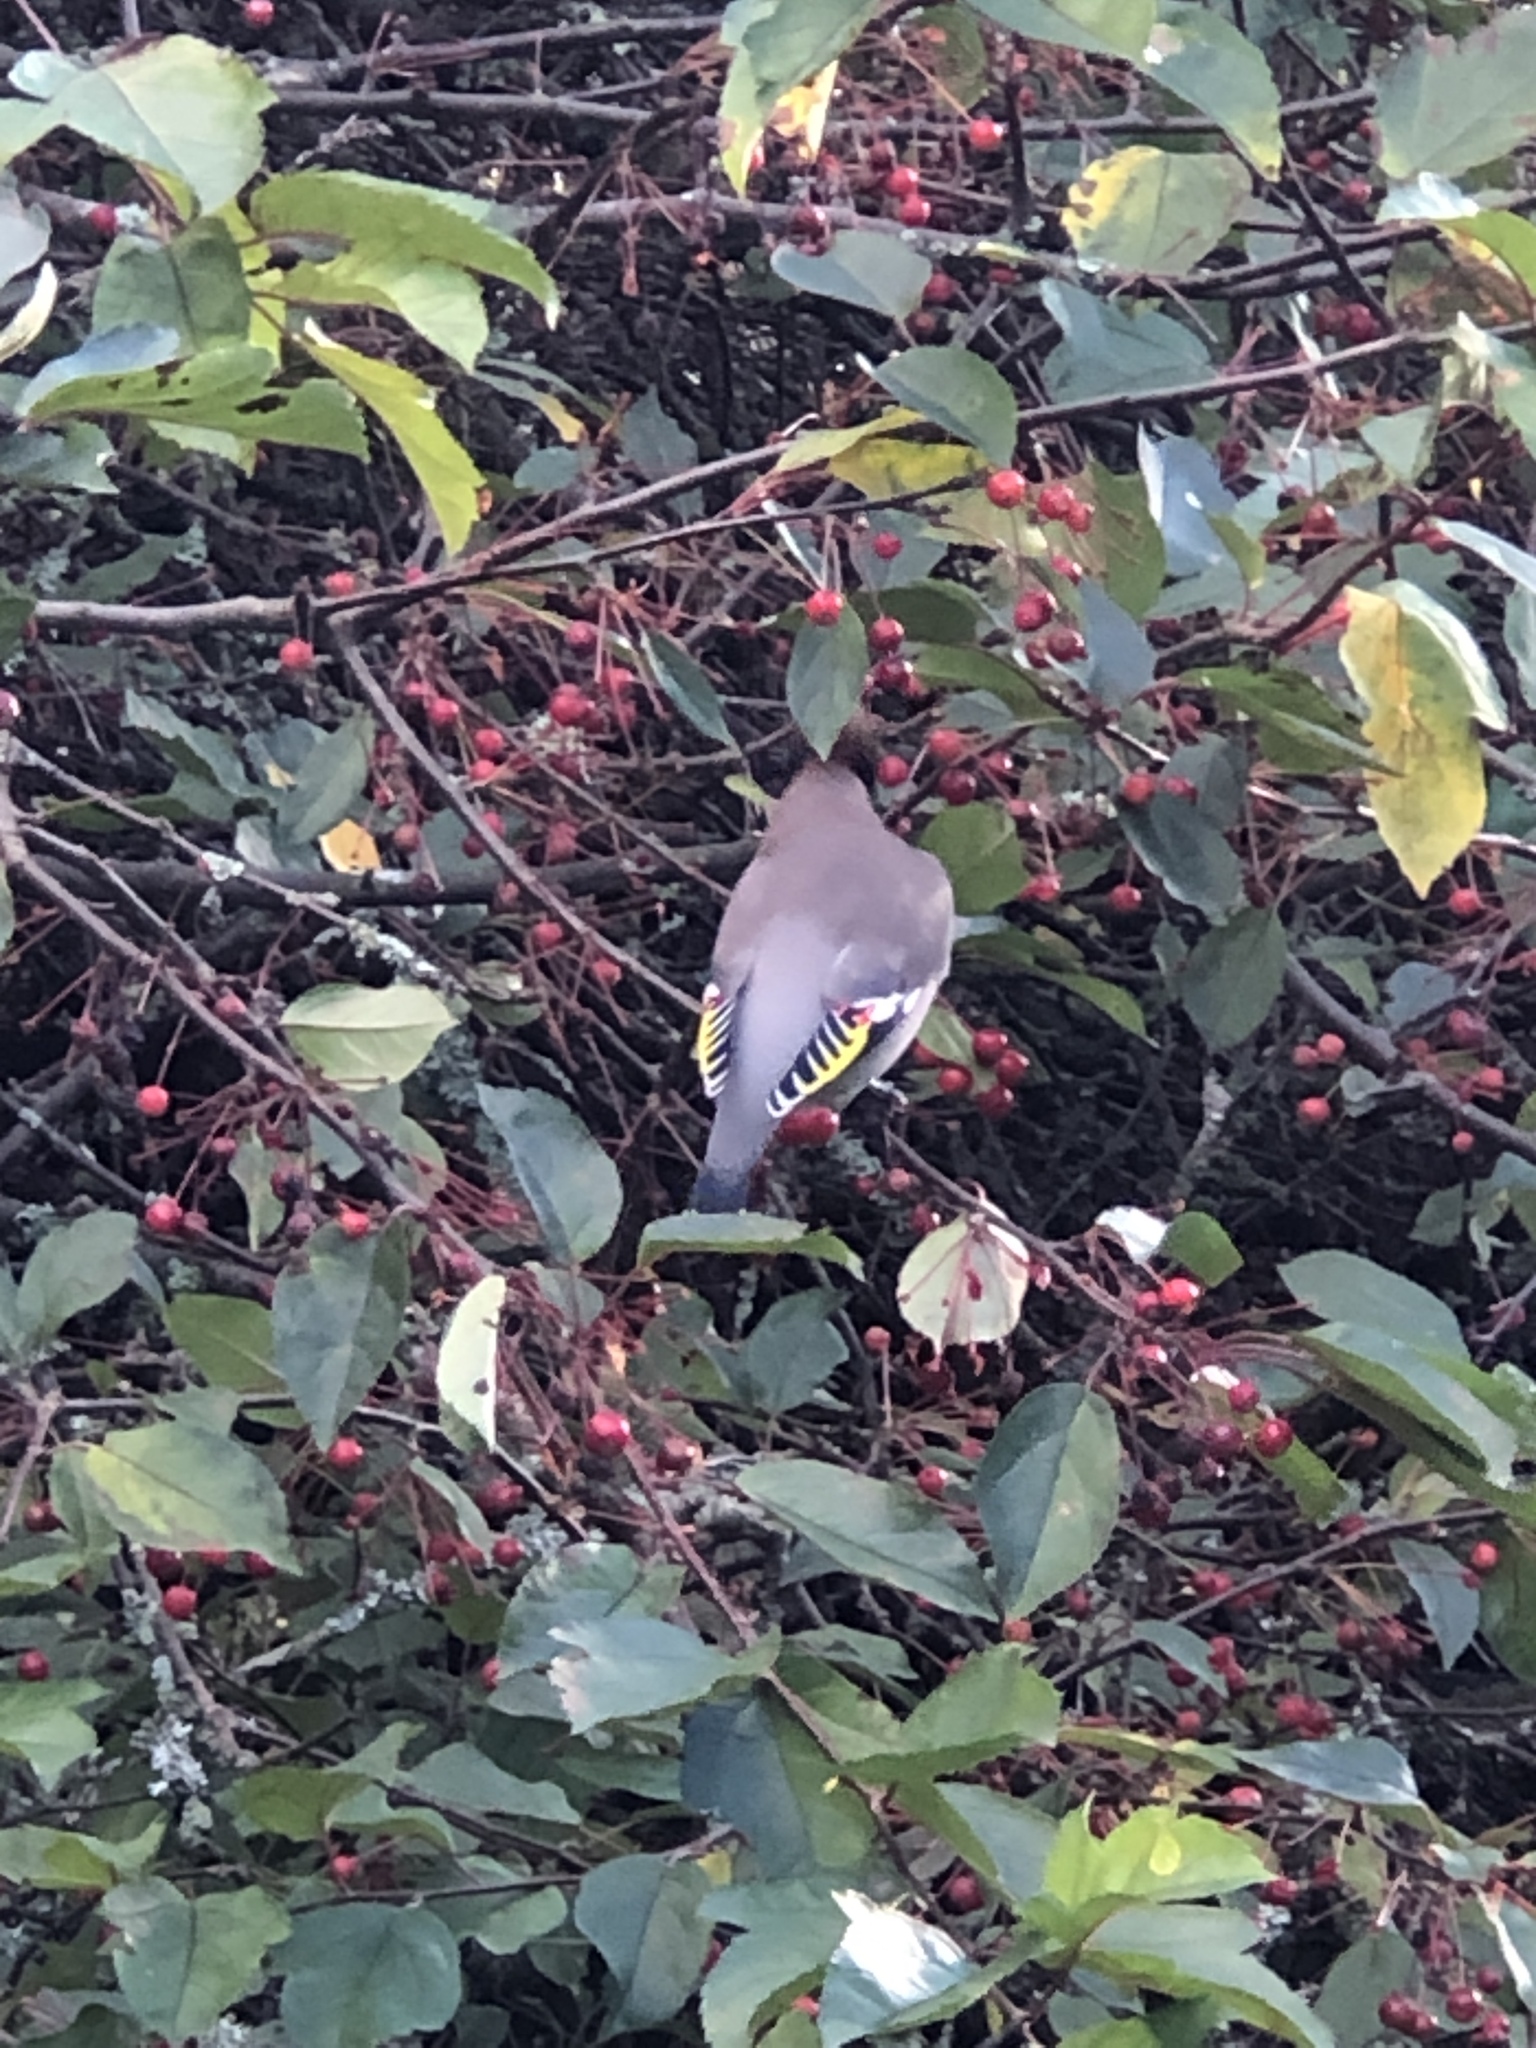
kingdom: Animalia
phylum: Chordata
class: Aves
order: Passeriformes
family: Bombycillidae
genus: Bombycilla
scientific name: Bombycilla garrulus
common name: Bohemian waxwing
